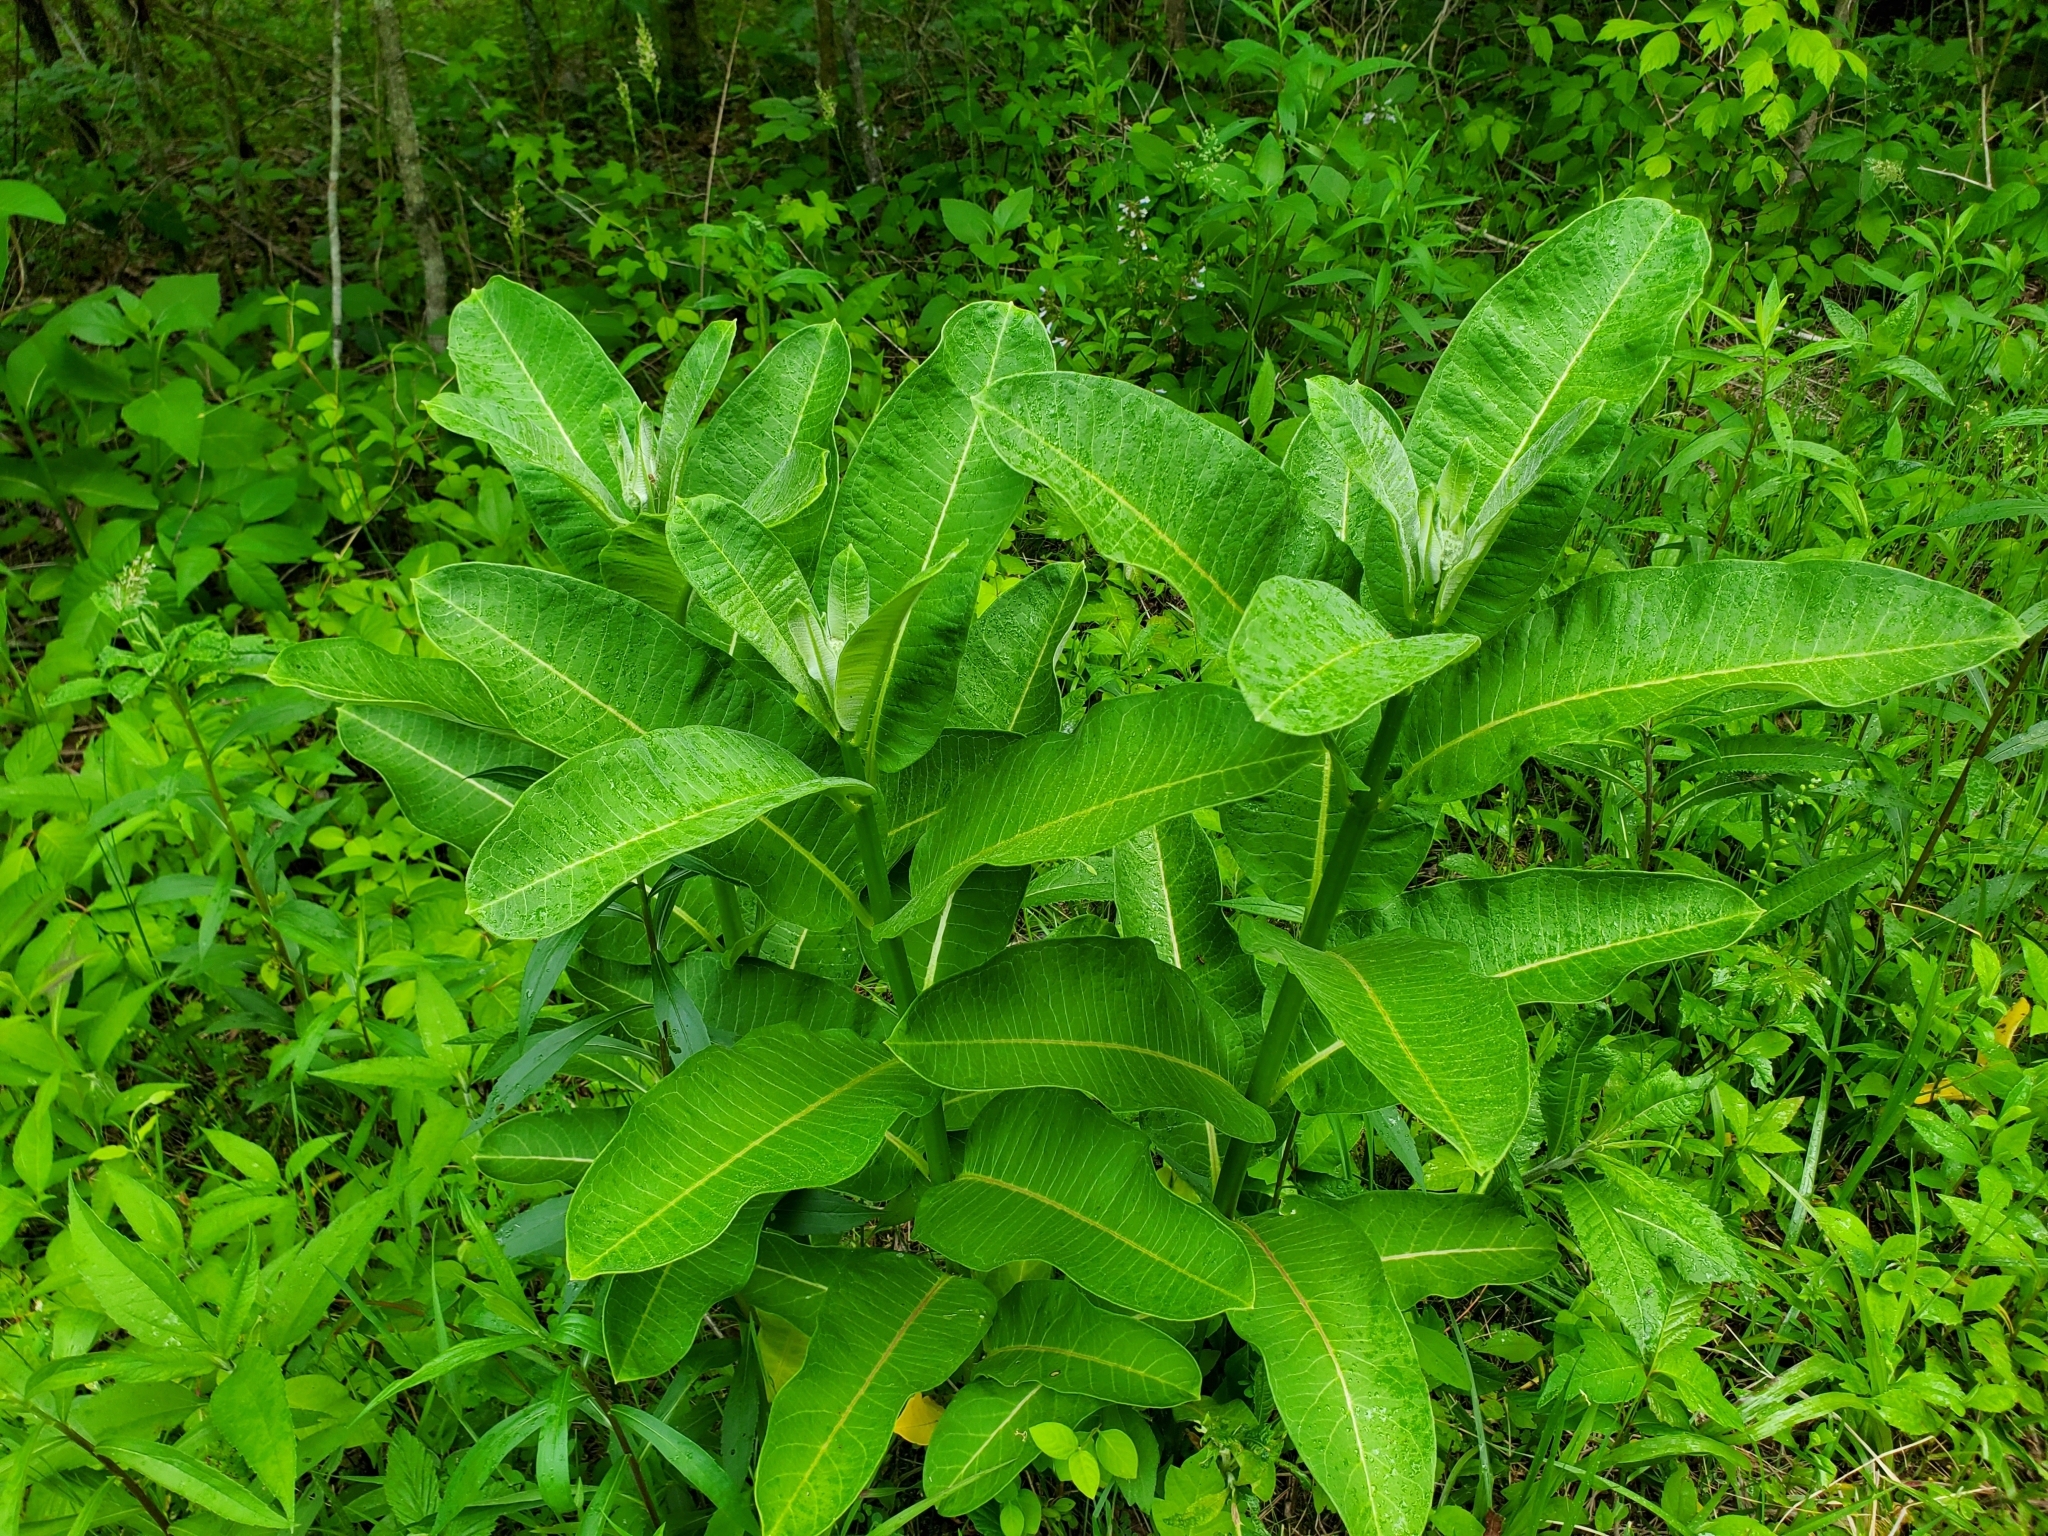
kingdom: Plantae
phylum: Tracheophyta
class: Magnoliopsida
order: Gentianales
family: Apocynaceae
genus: Asclepias
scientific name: Asclepias syriaca
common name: Common milkweed
